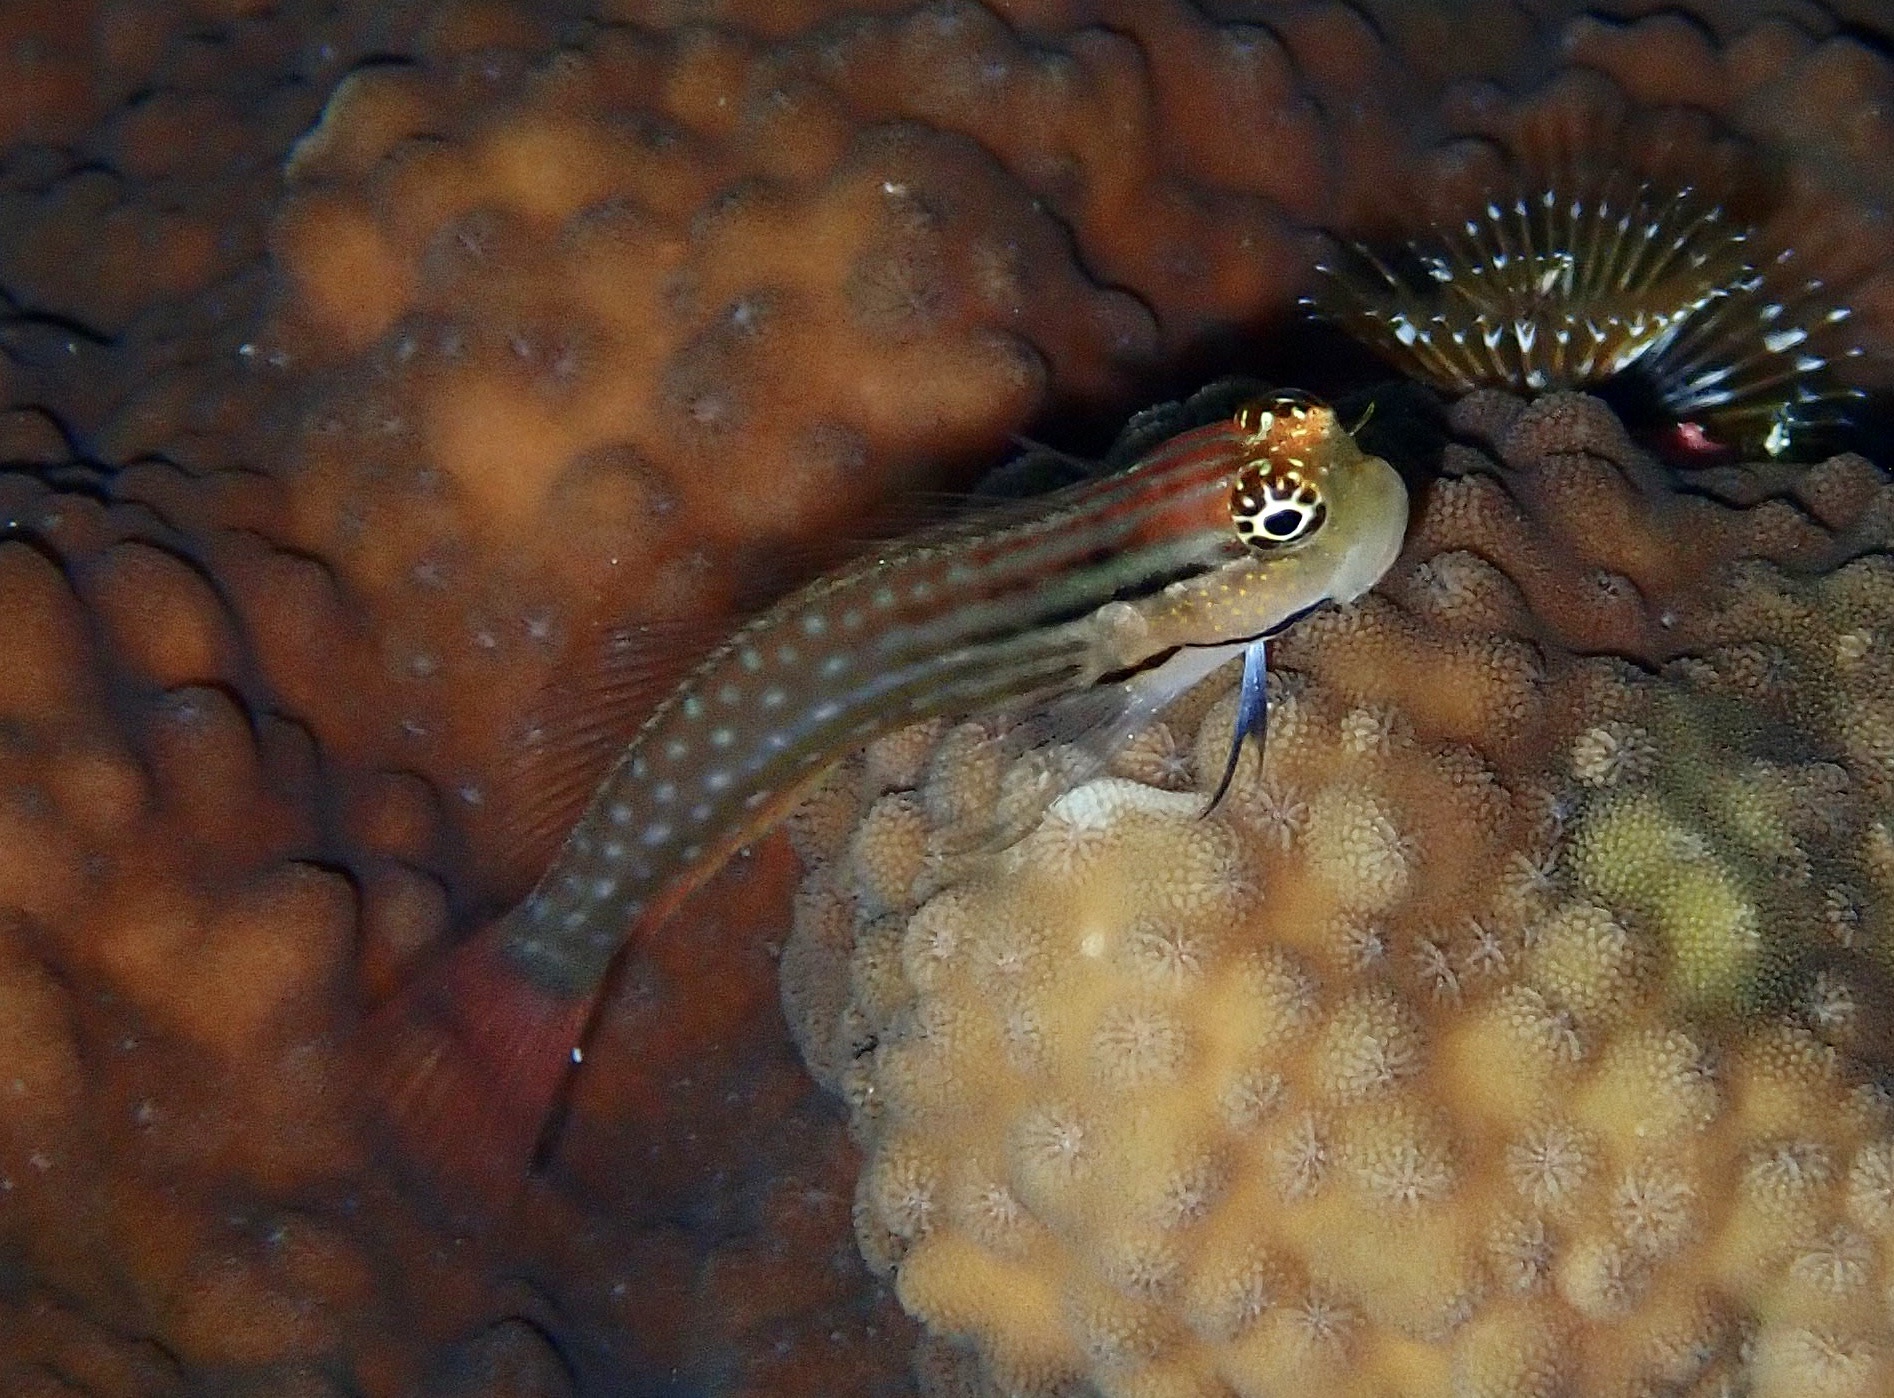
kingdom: Animalia
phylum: Chordata
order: Perciformes
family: Blenniidae
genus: Ecsenius
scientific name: Ecsenius dentex
